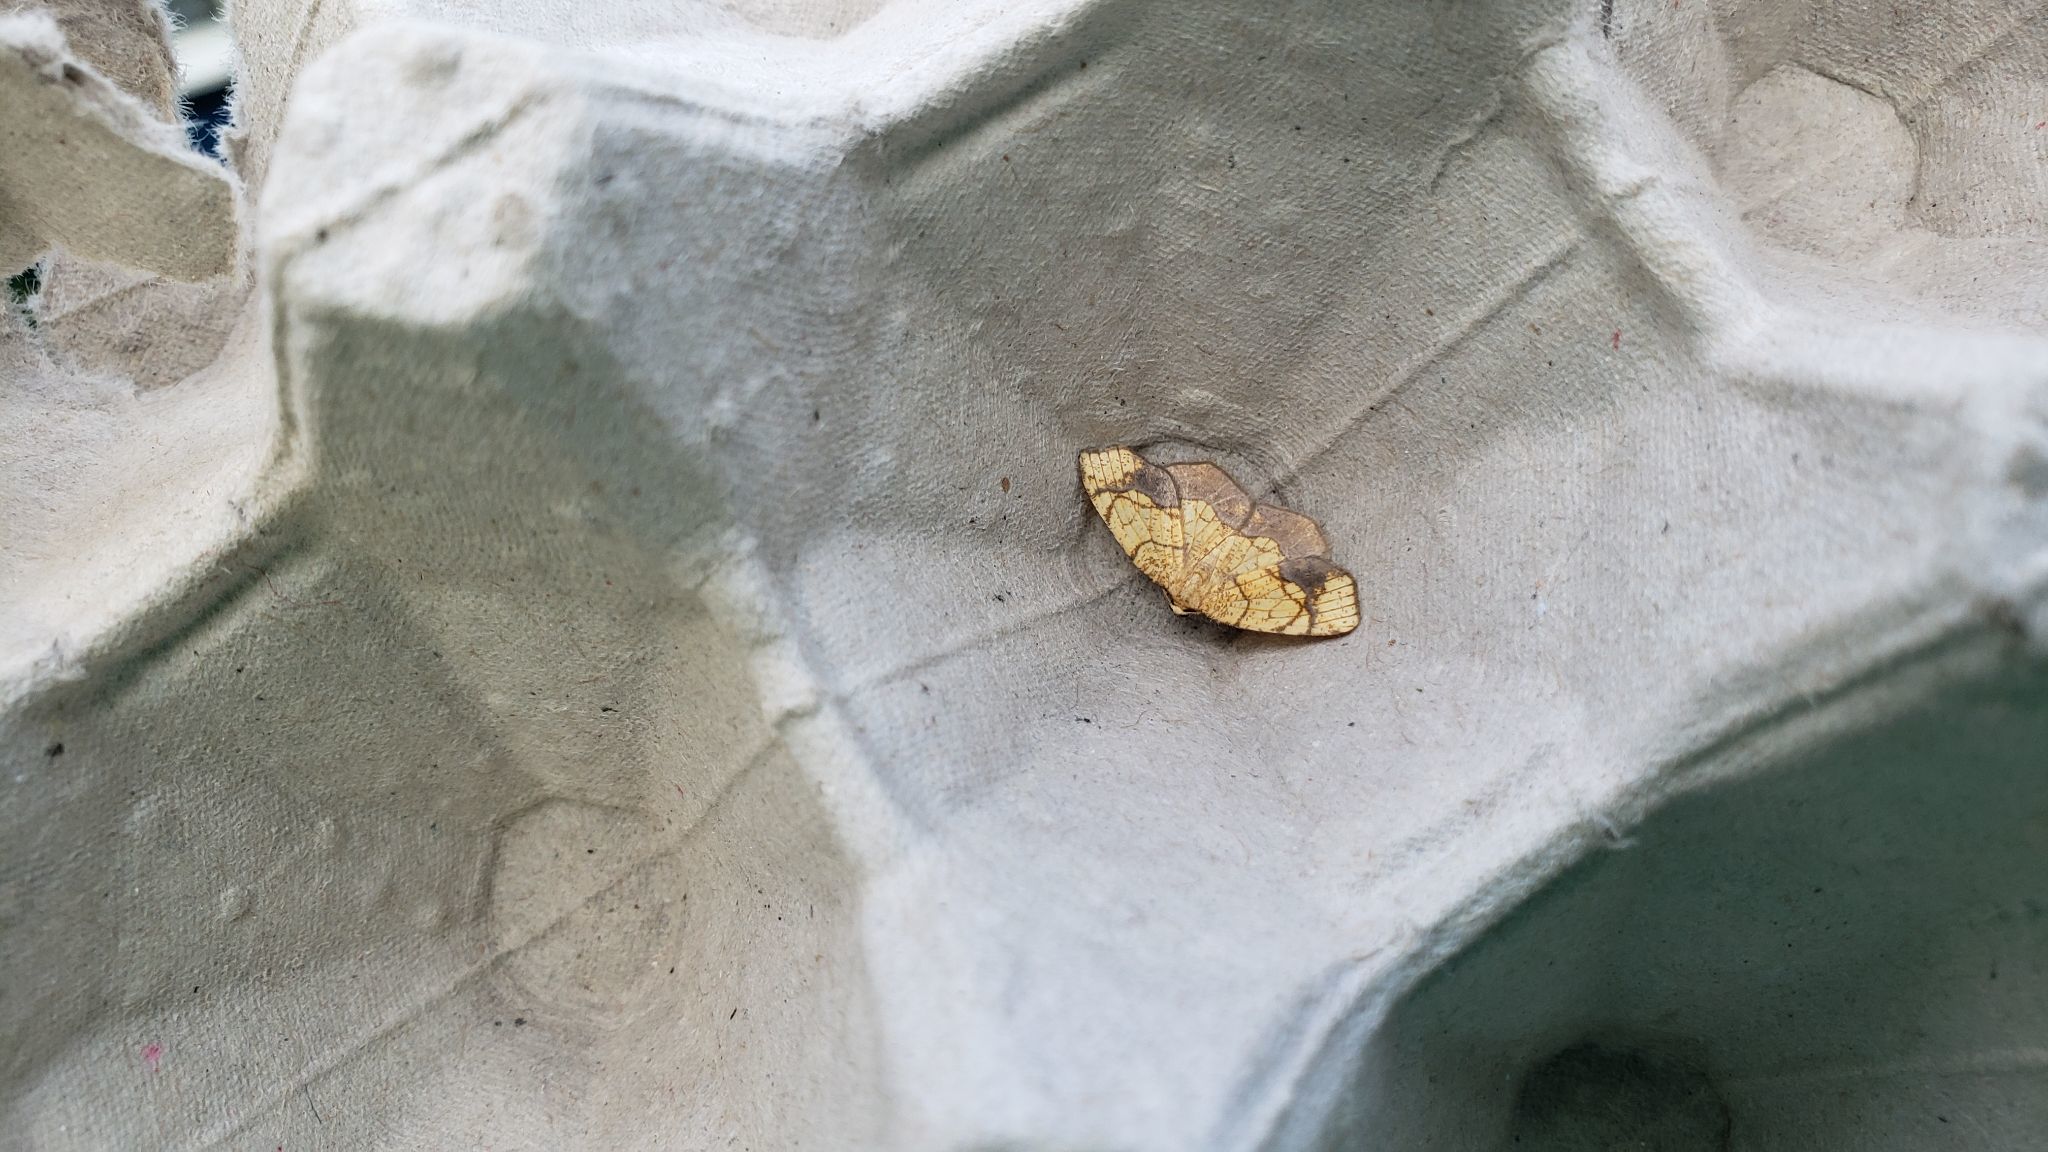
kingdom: Animalia
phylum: Arthropoda
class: Insecta
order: Lepidoptera
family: Geometridae
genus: Nematocampa
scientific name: Nematocampa resistaria
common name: Horned spanworm moth
